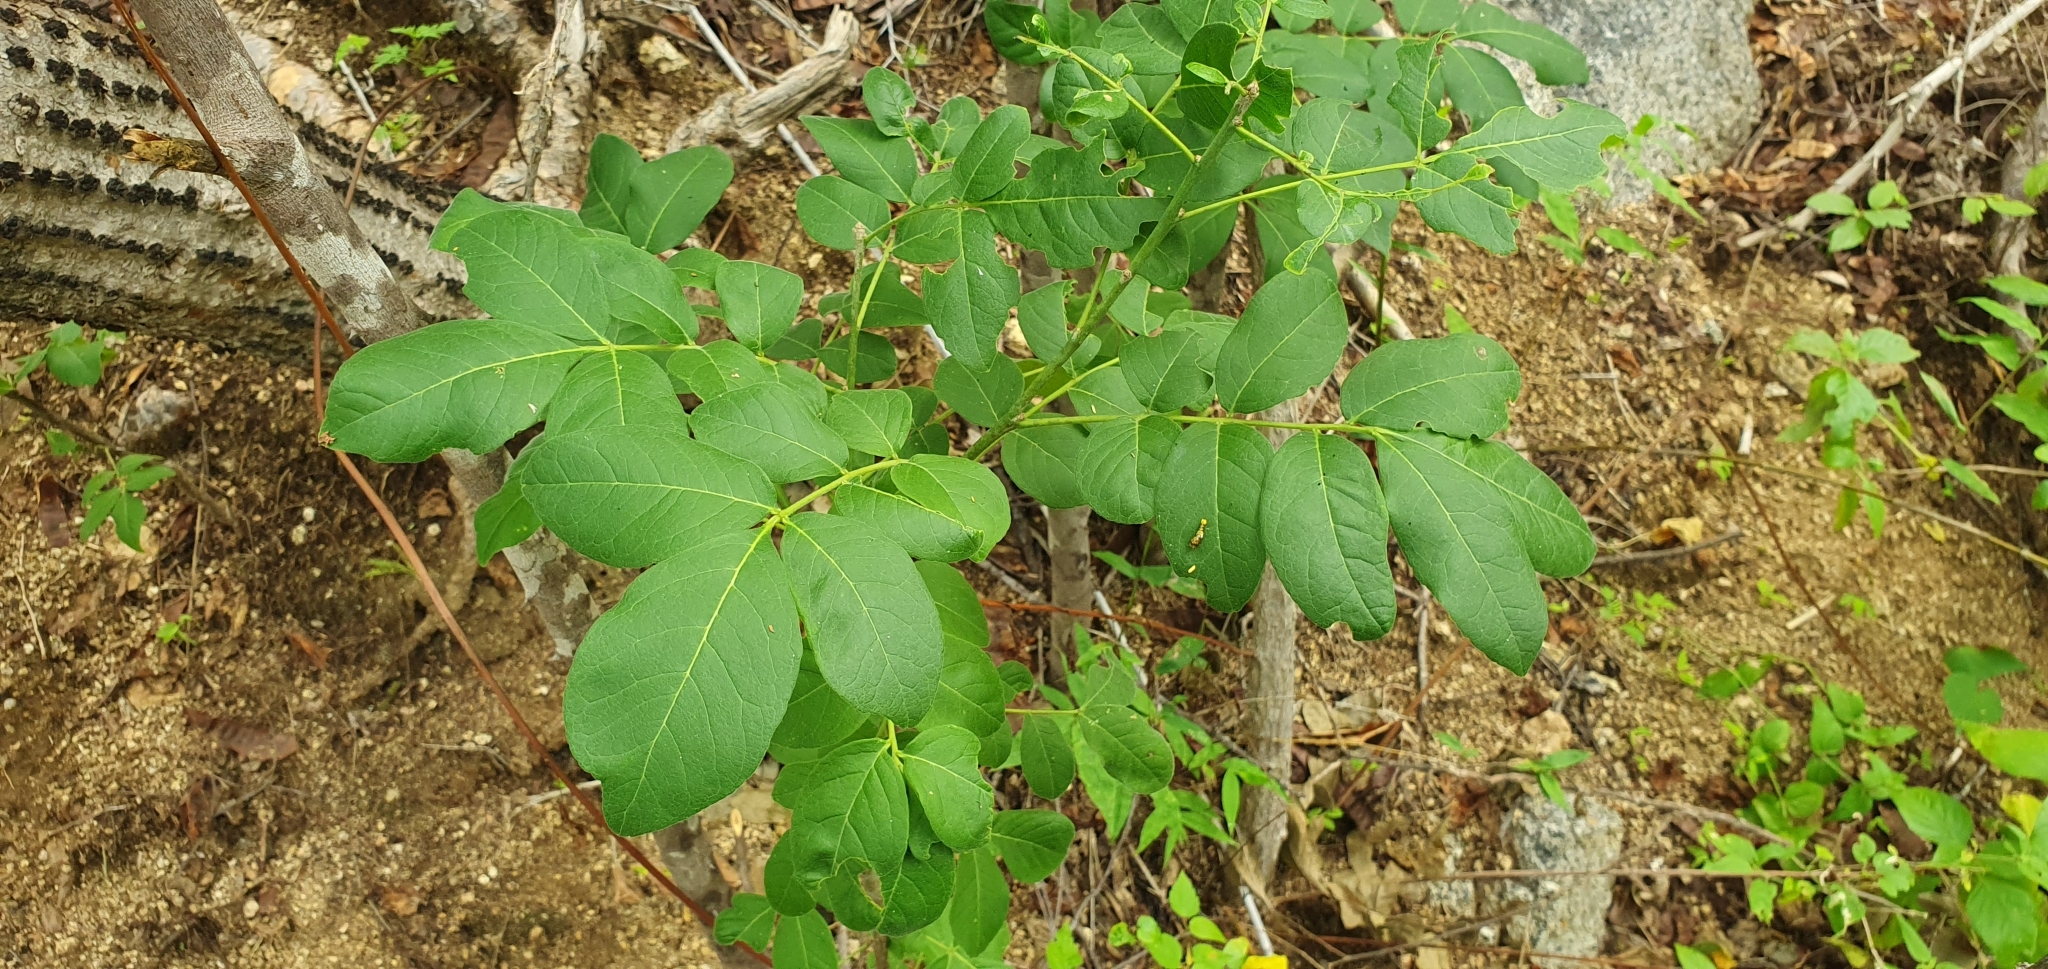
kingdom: Plantae
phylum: Tracheophyta
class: Magnoliopsida
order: Sapindales
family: Rutaceae
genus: Zanthoxylum
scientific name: Zanthoxylum arborescens
